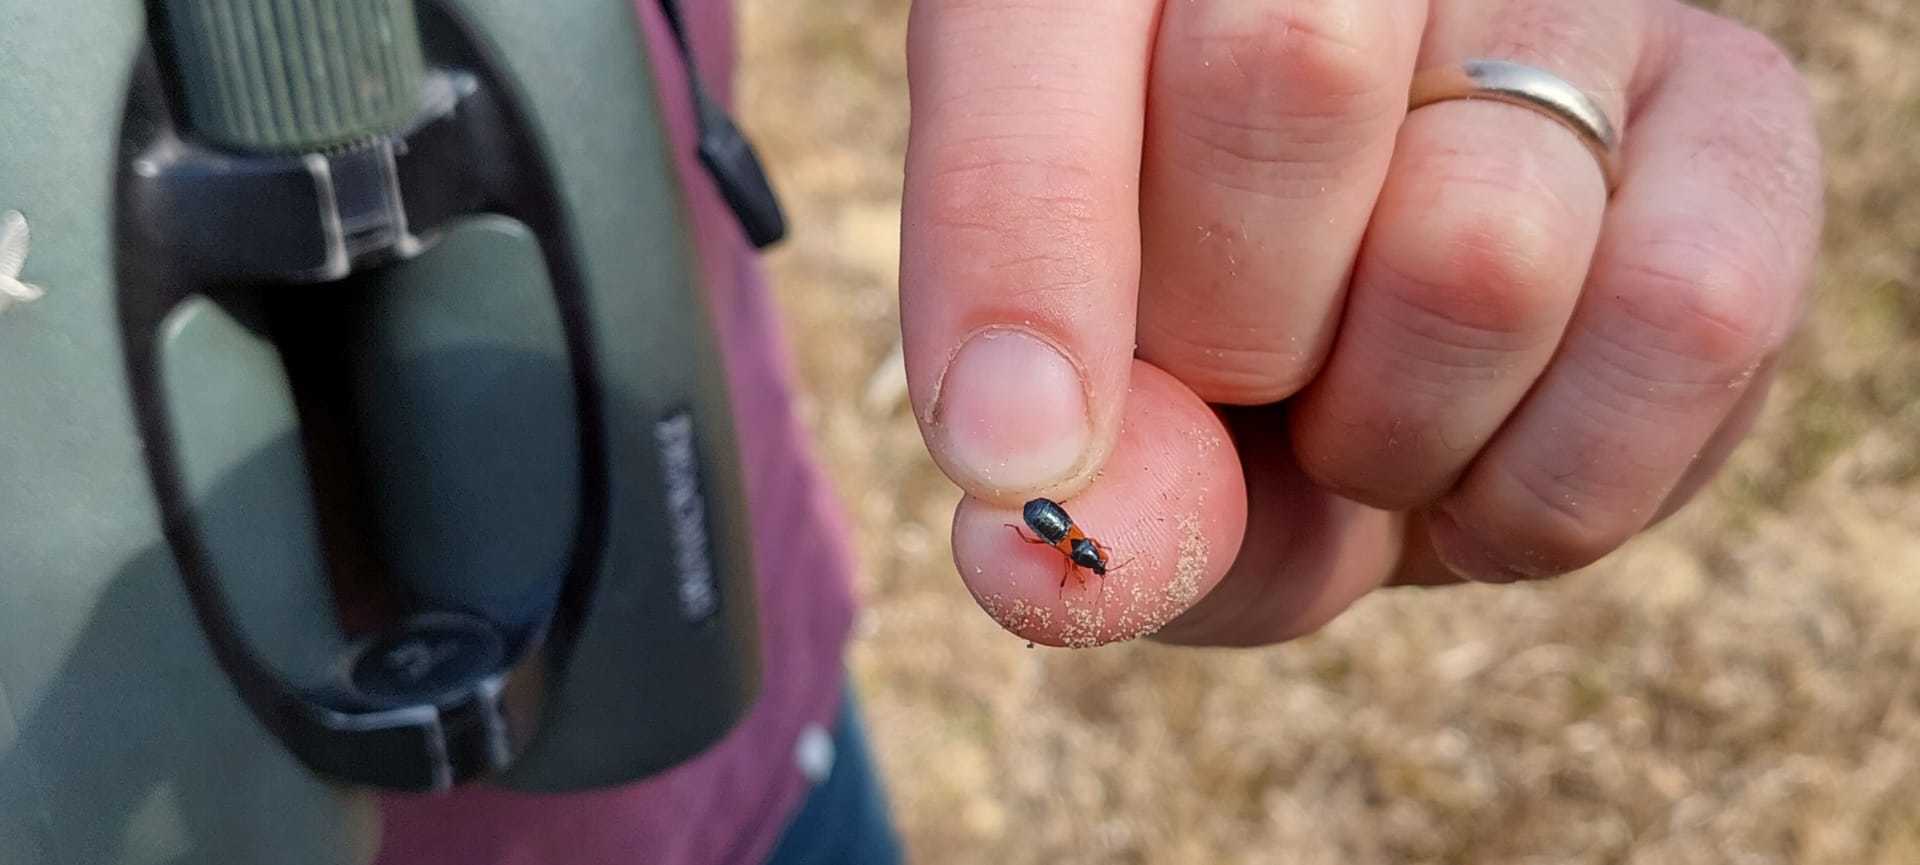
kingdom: Animalia
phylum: Arthropoda
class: Insecta
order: Hemiptera
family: Nabidae
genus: Prostemma
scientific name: Prostemma guttula
